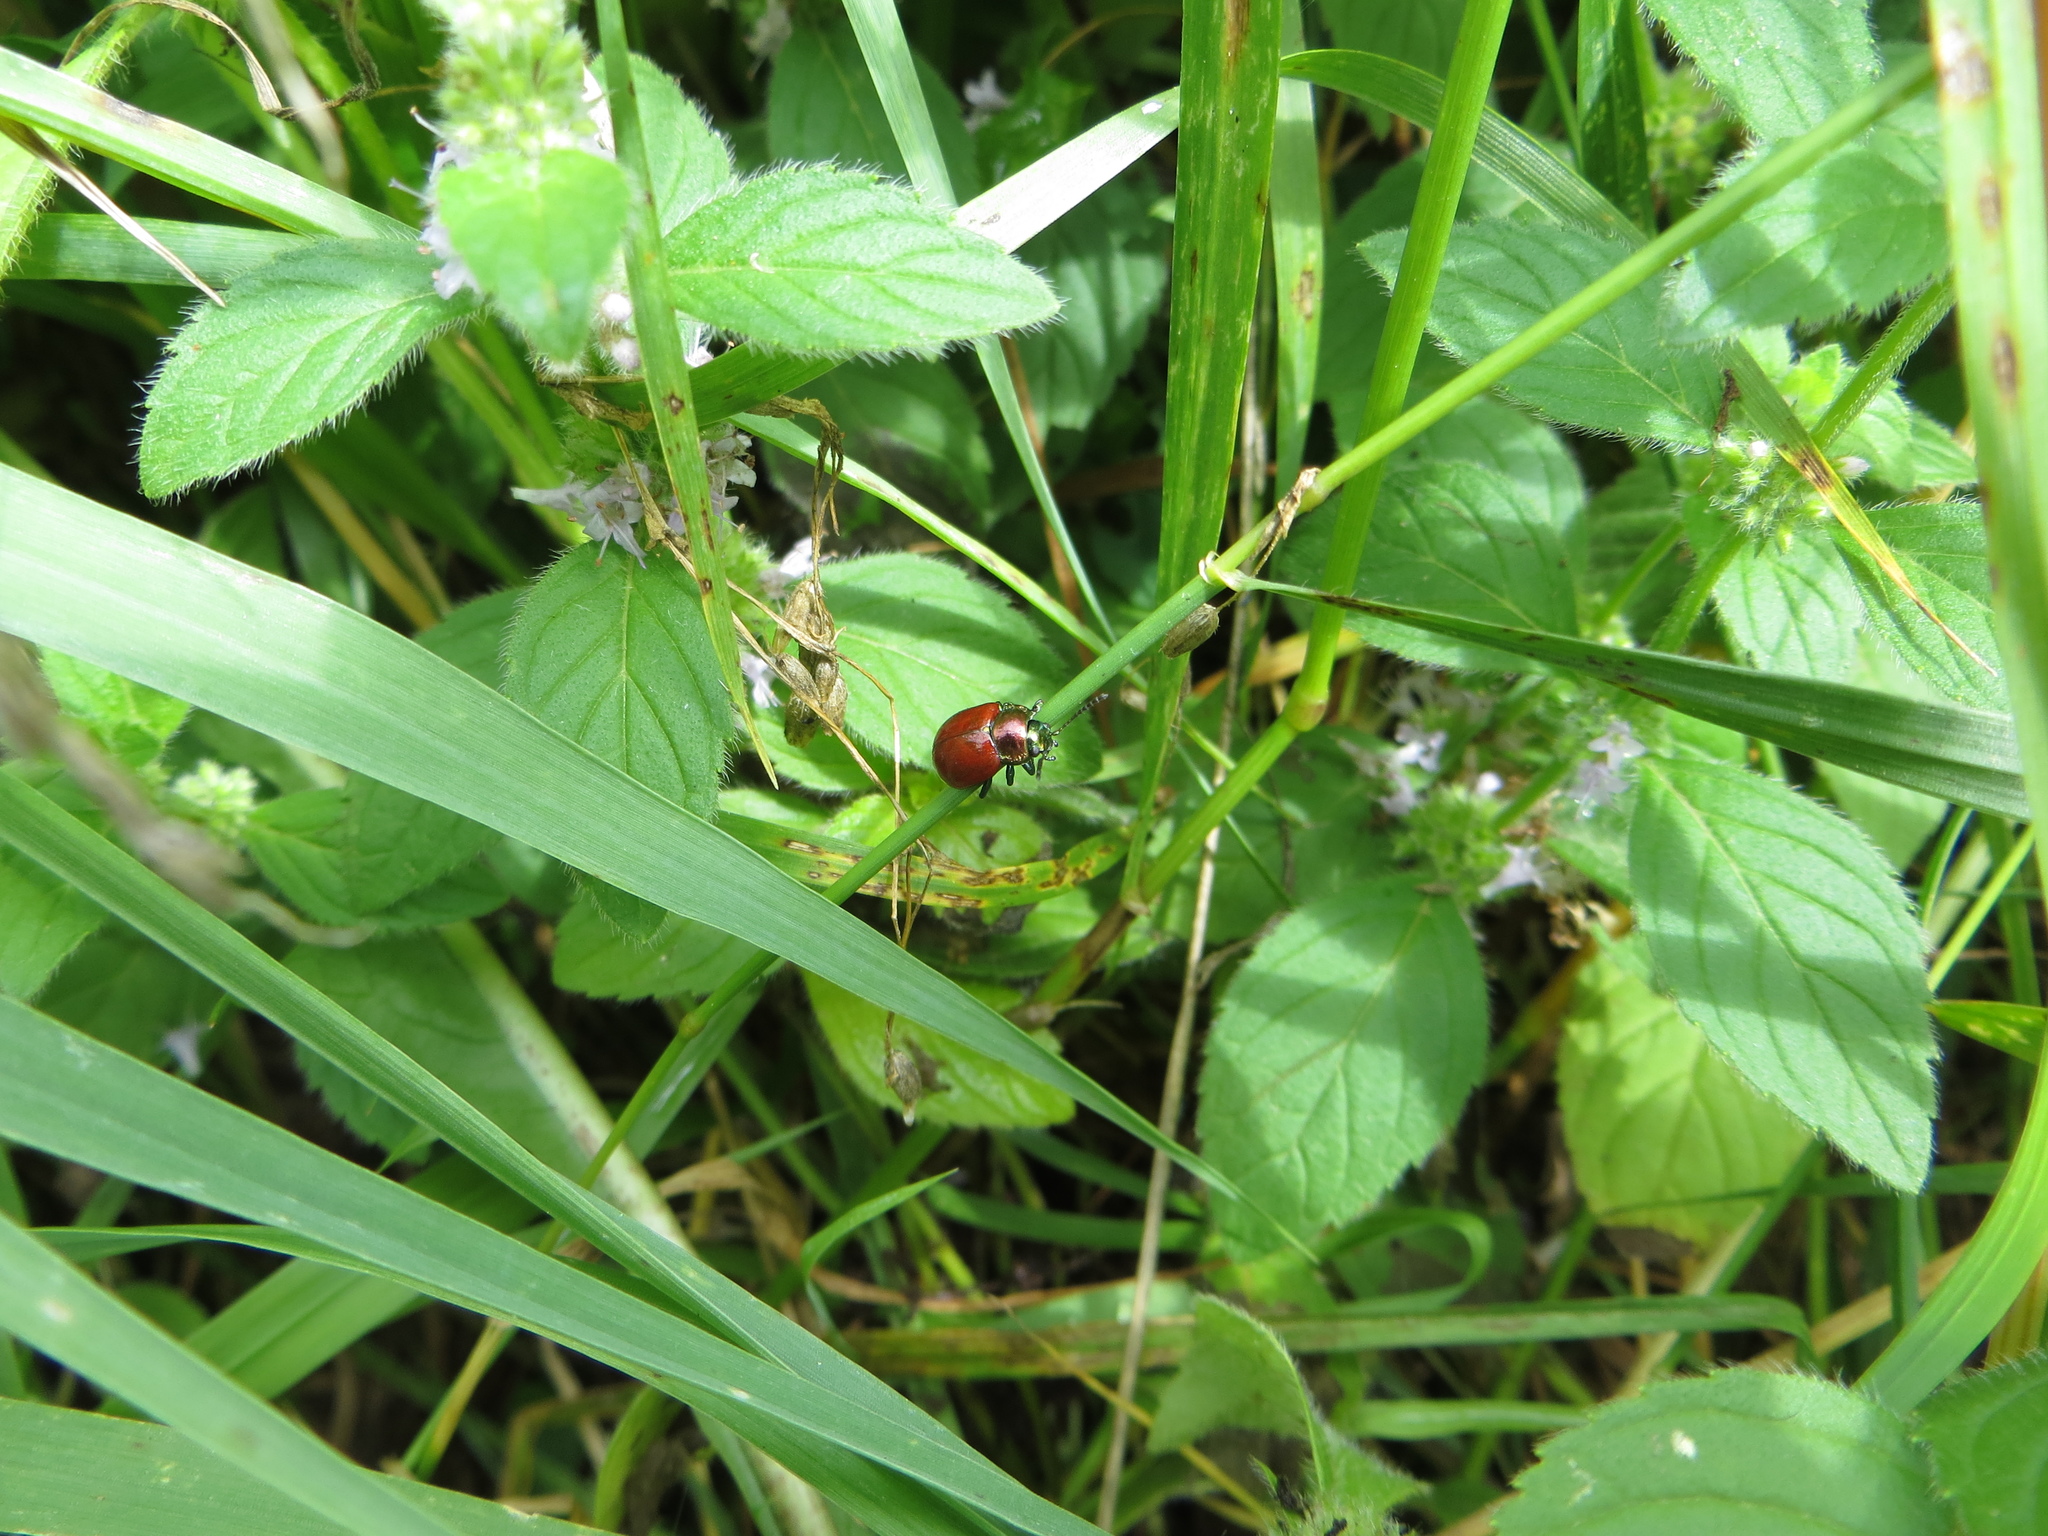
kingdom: Animalia
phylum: Arthropoda
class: Insecta
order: Coleoptera
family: Chrysomelidae
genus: Chrysomela
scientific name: Chrysomela polita
